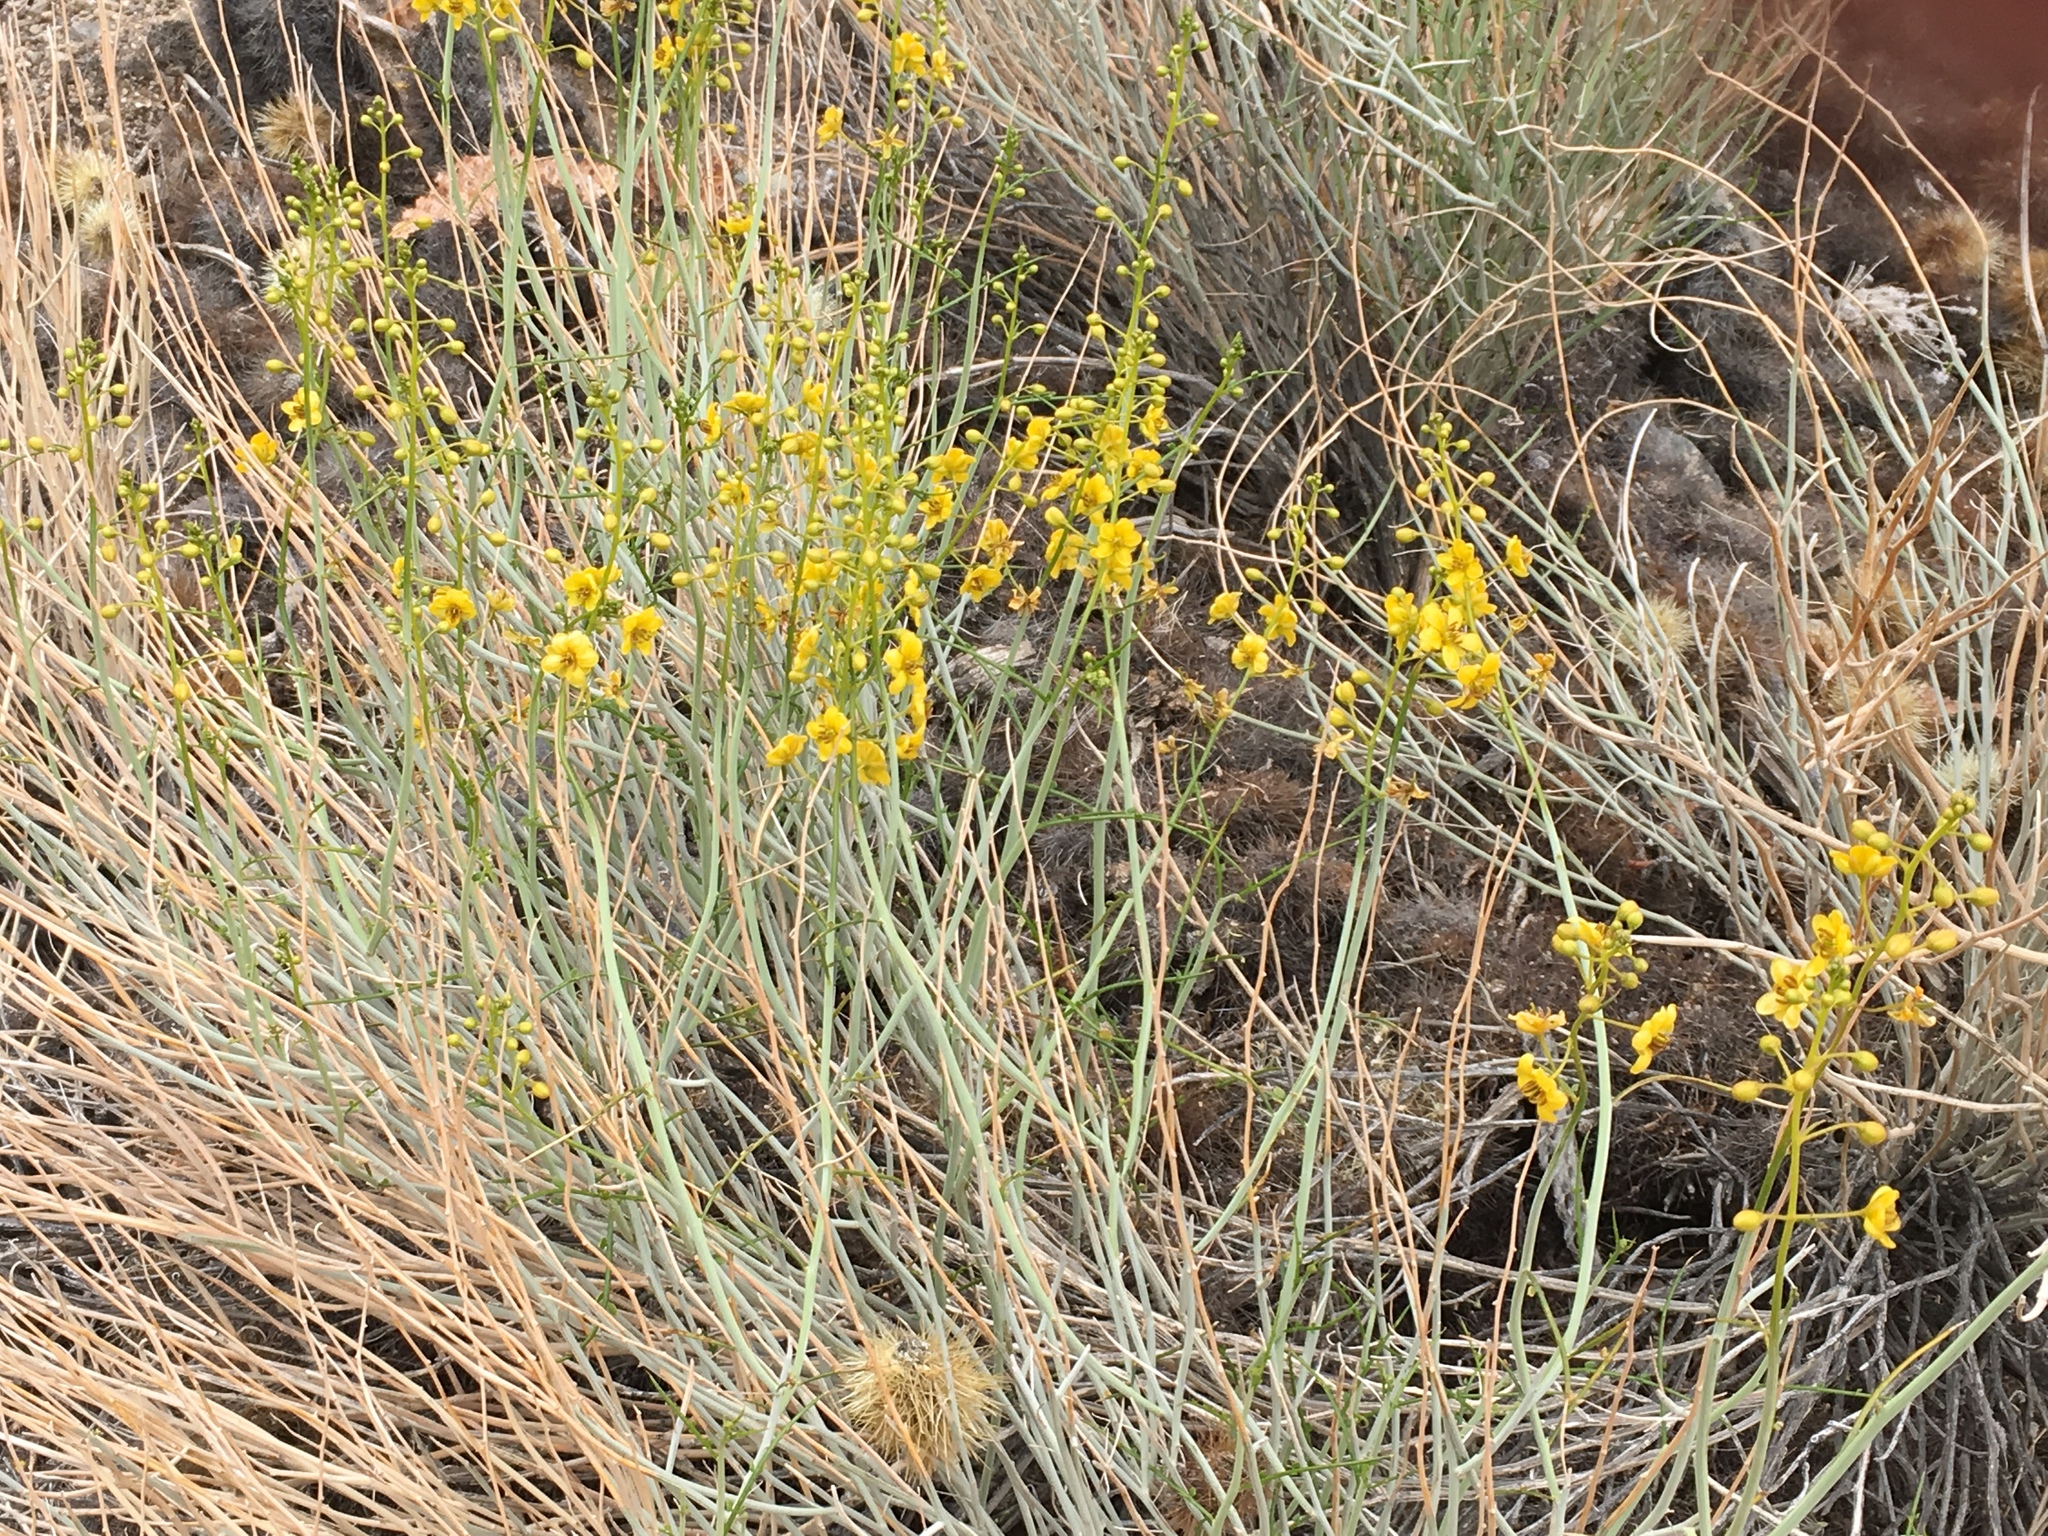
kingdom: Plantae
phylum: Tracheophyta
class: Magnoliopsida
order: Fabales
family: Fabaceae
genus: Senna
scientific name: Senna armata
